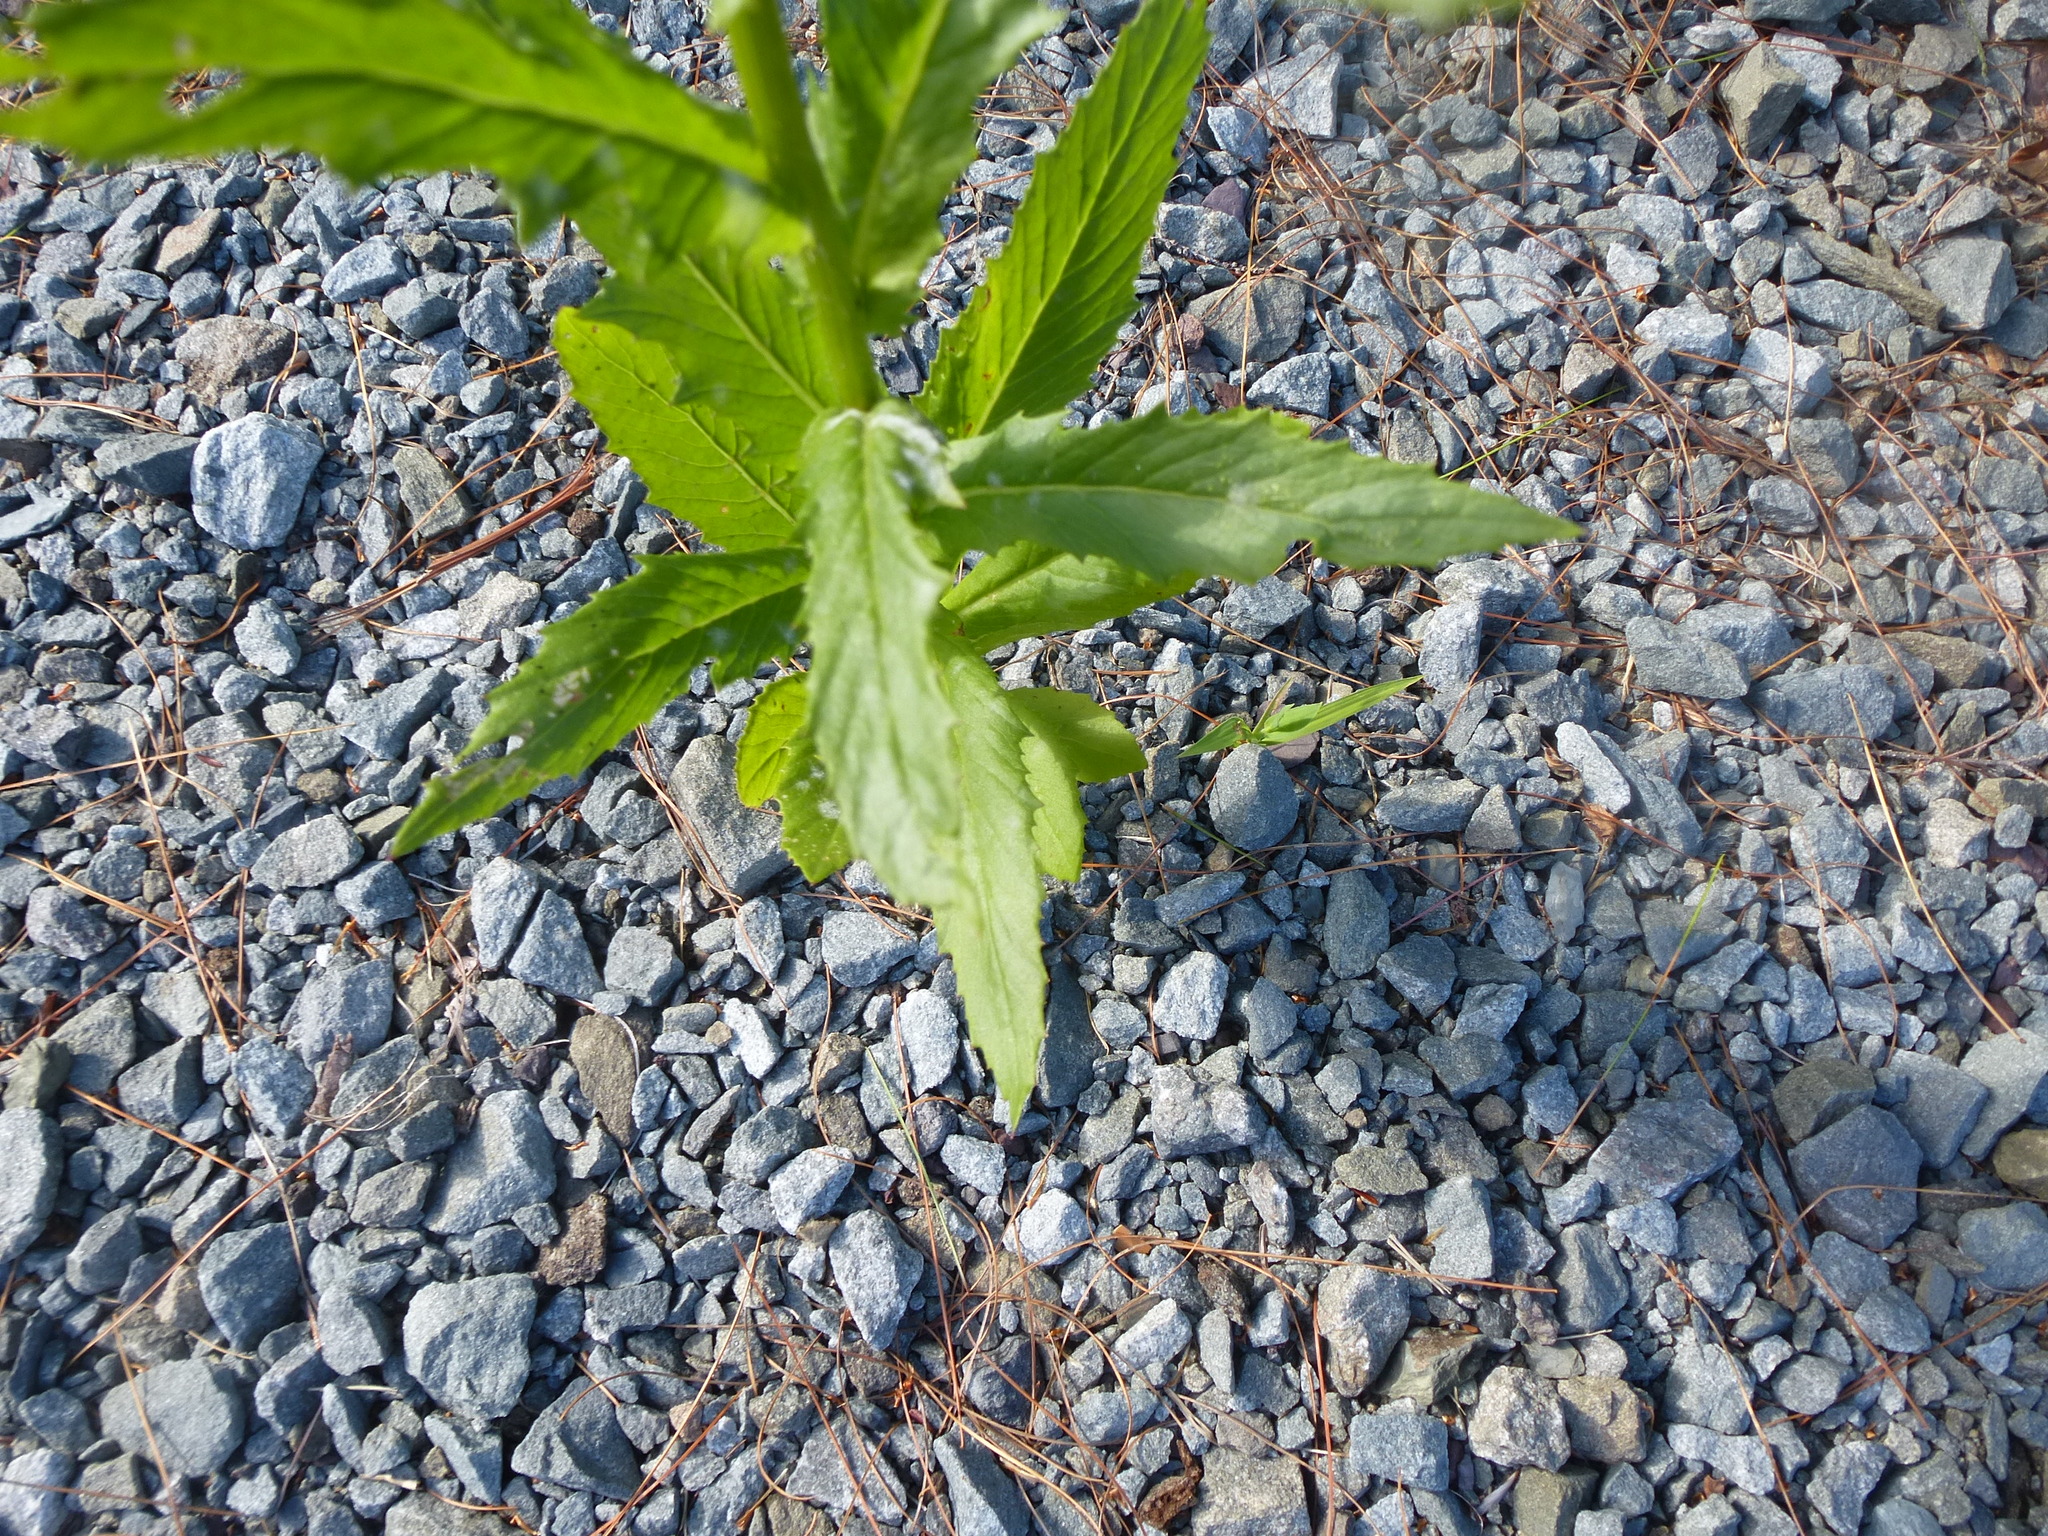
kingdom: Plantae
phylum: Tracheophyta
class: Magnoliopsida
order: Asterales
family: Asteraceae
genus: Erechtites
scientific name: Erechtites hieraciifolius
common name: American burnweed
